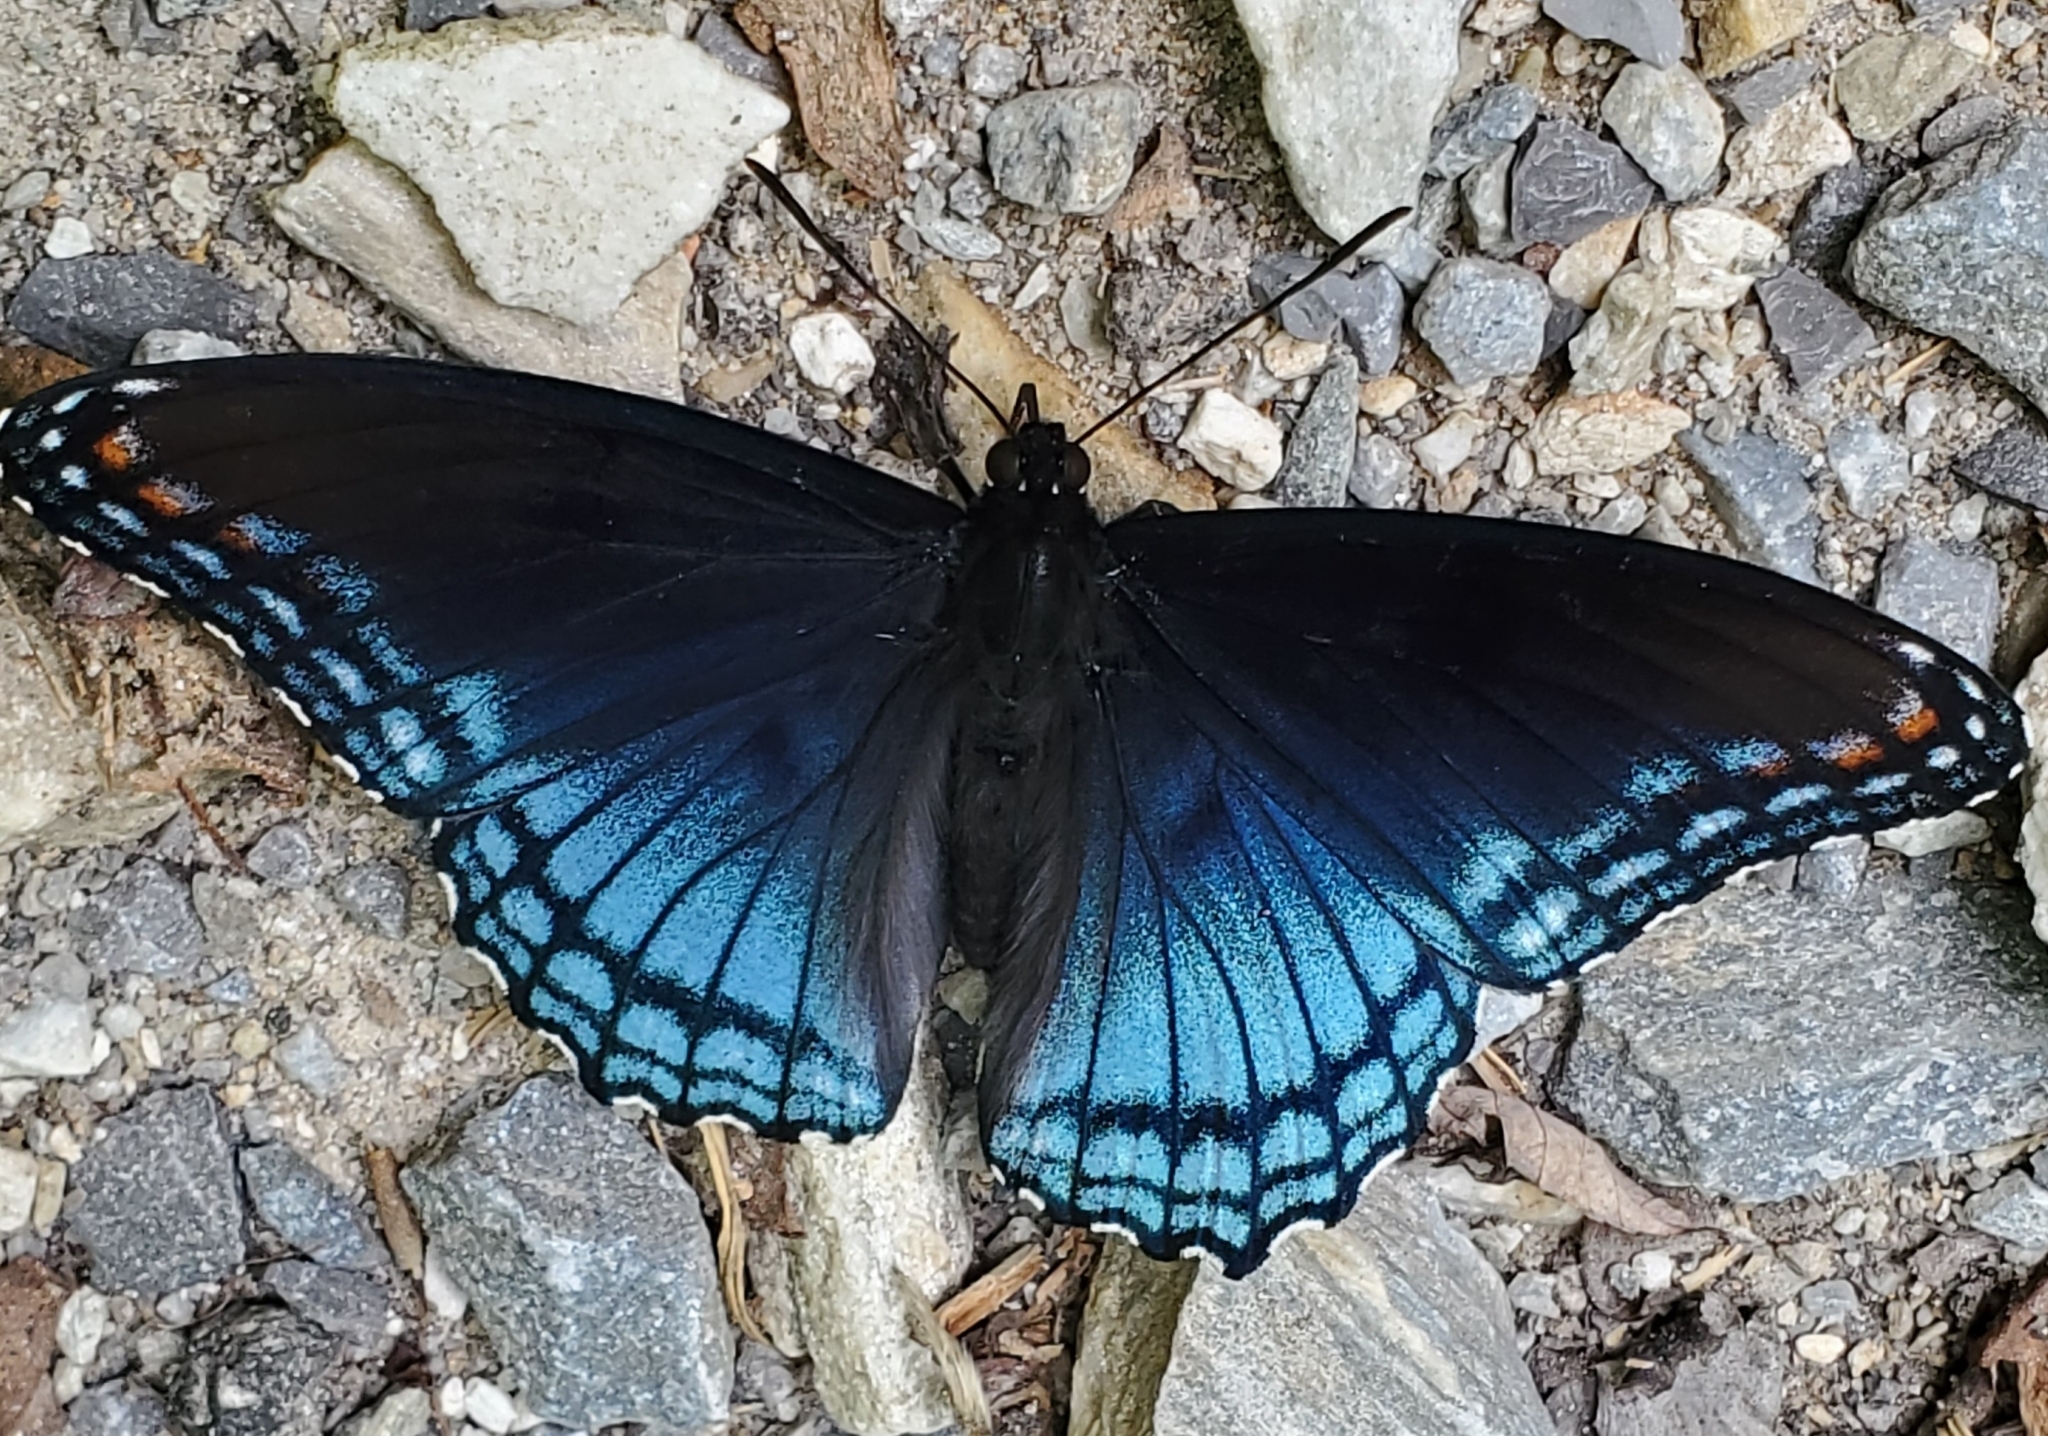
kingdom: Animalia
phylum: Arthropoda
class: Insecta
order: Lepidoptera
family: Nymphalidae
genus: Limenitis
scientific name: Limenitis arthemis
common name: Red-spotted admiral
